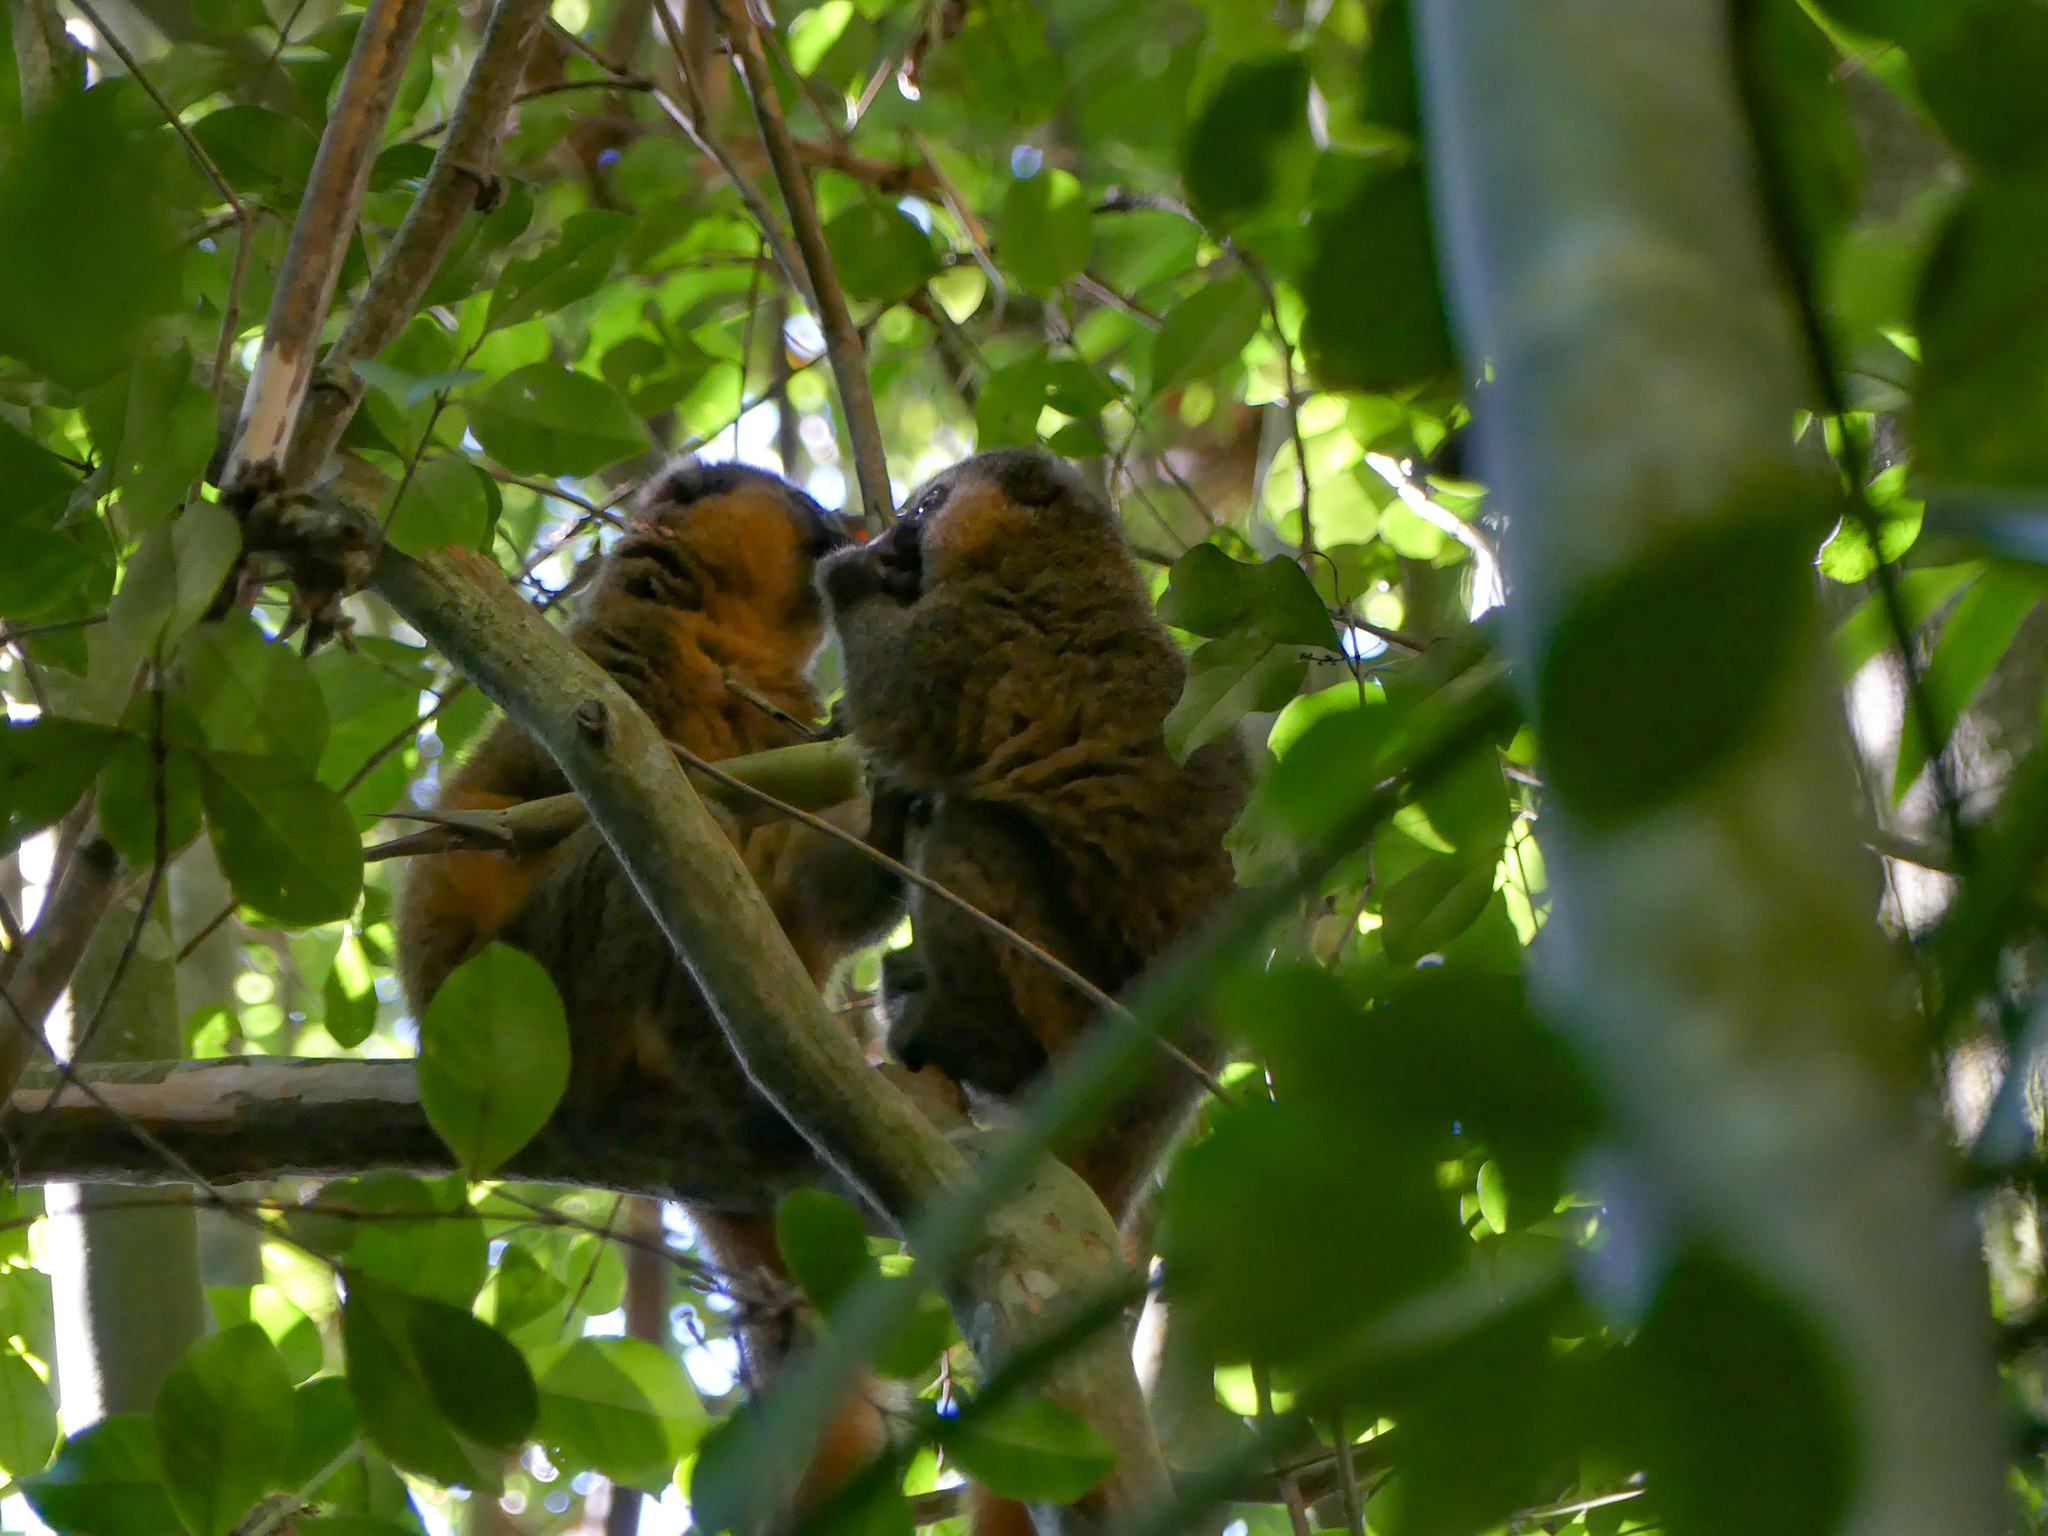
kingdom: Animalia
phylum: Chordata
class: Mammalia
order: Primates
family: Lemuridae
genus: Hapalemur
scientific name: Hapalemur aureus
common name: Golden bamboo lemur
